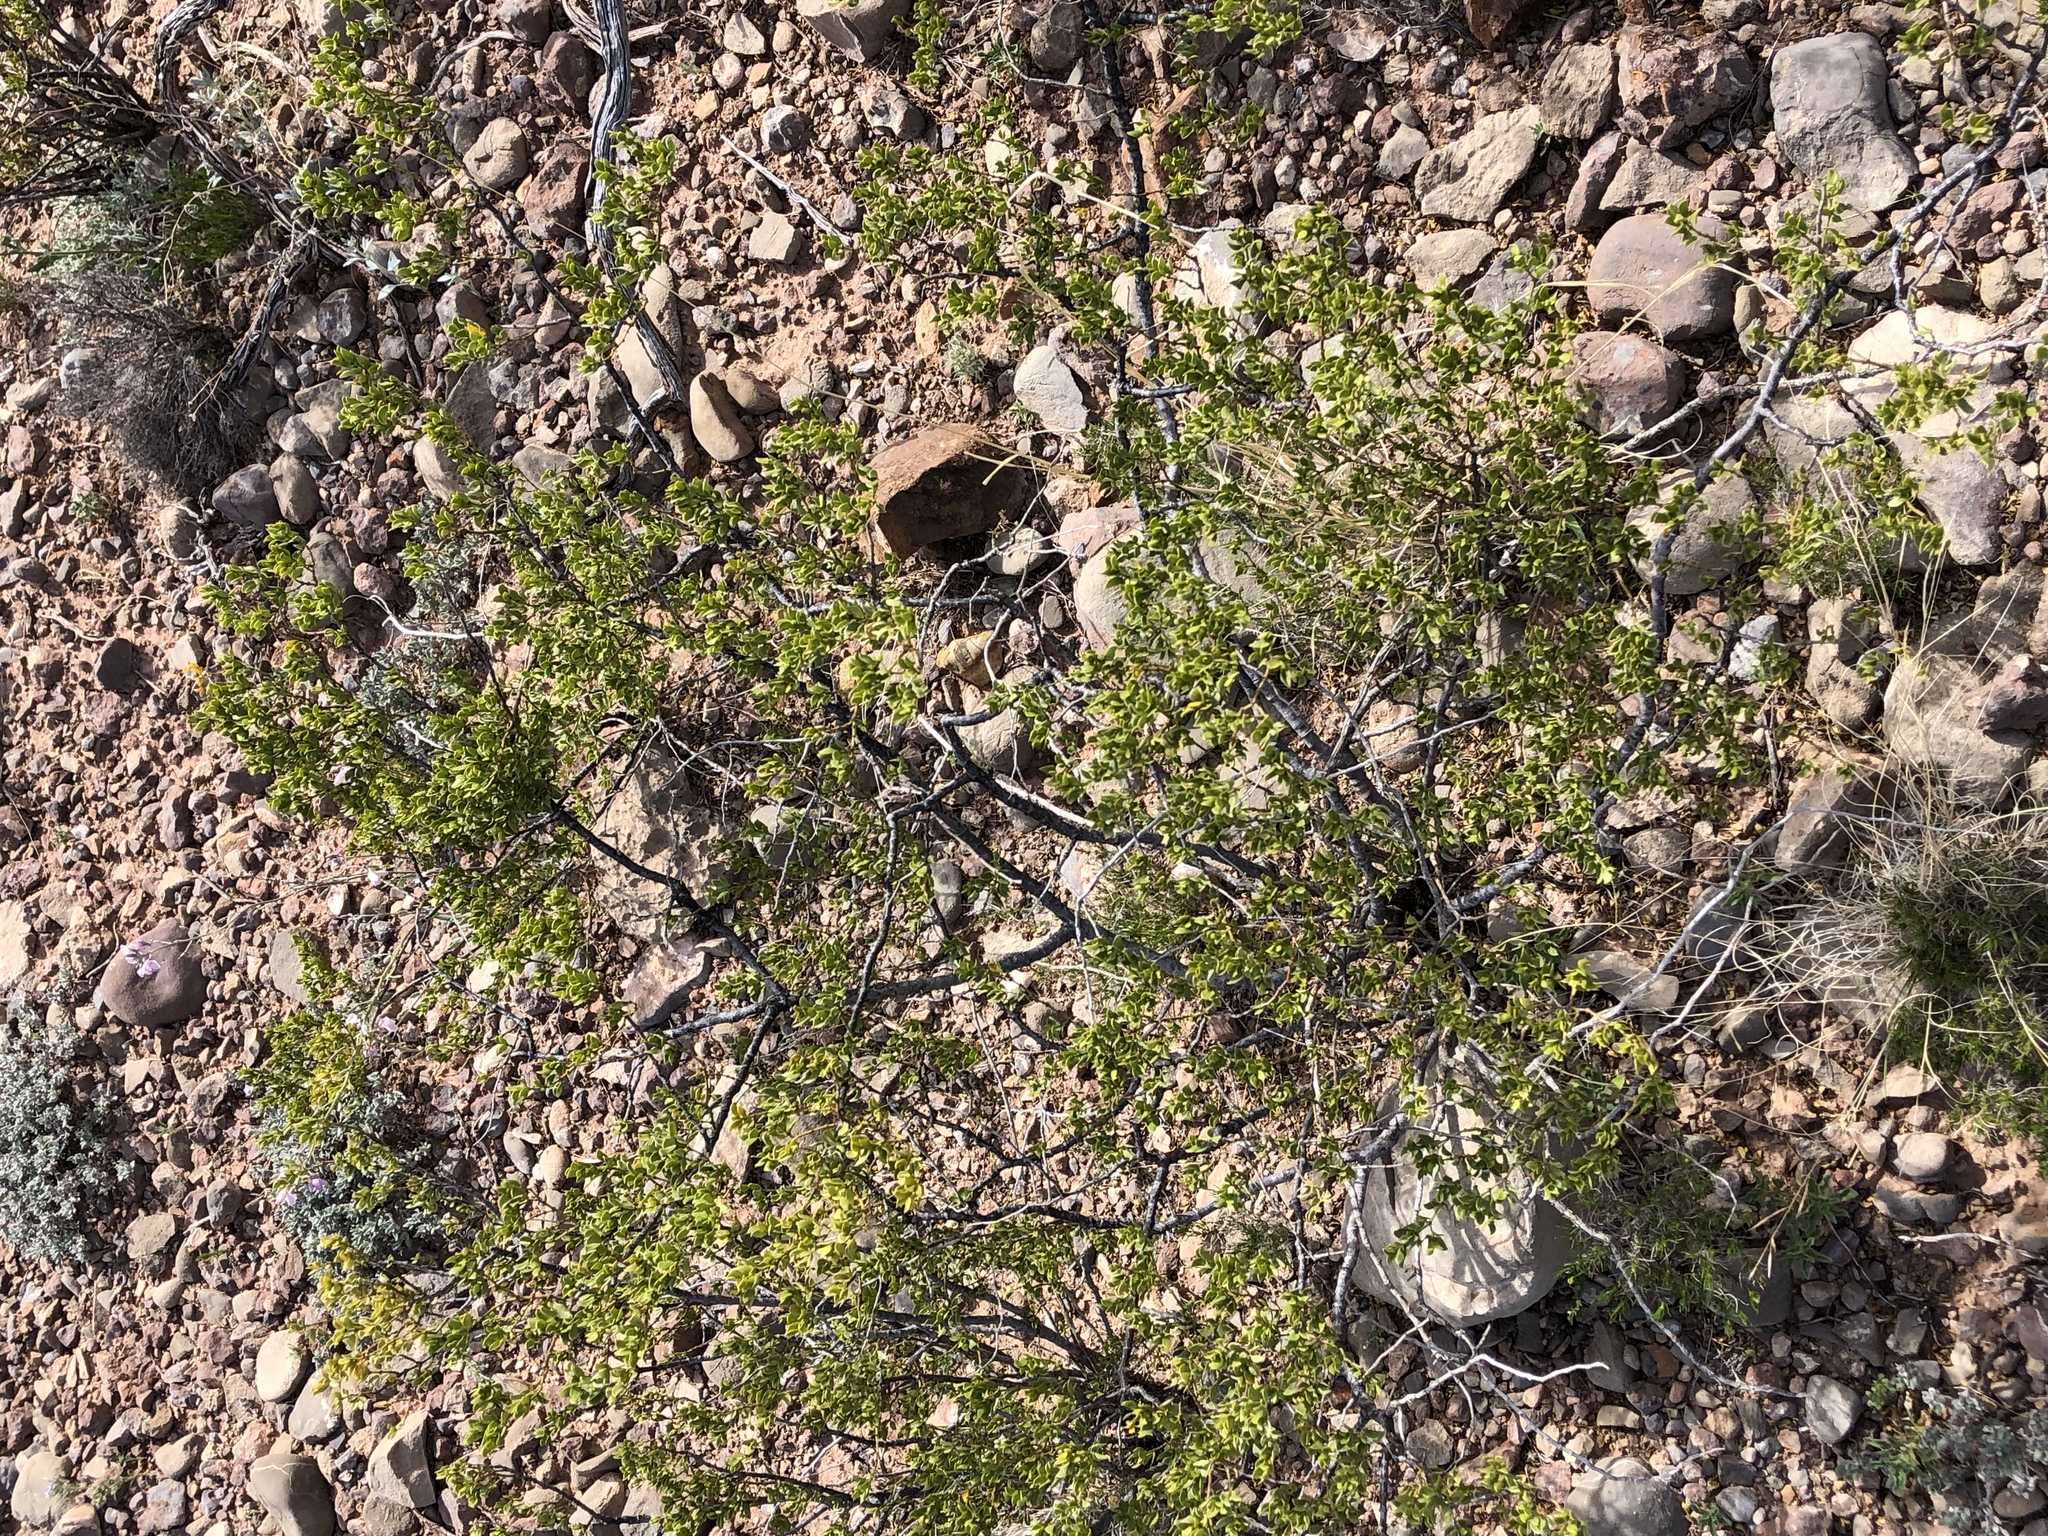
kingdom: Plantae
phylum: Tracheophyta
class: Magnoliopsida
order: Zygophyllales
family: Zygophyllaceae
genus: Larrea
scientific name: Larrea tridentata
